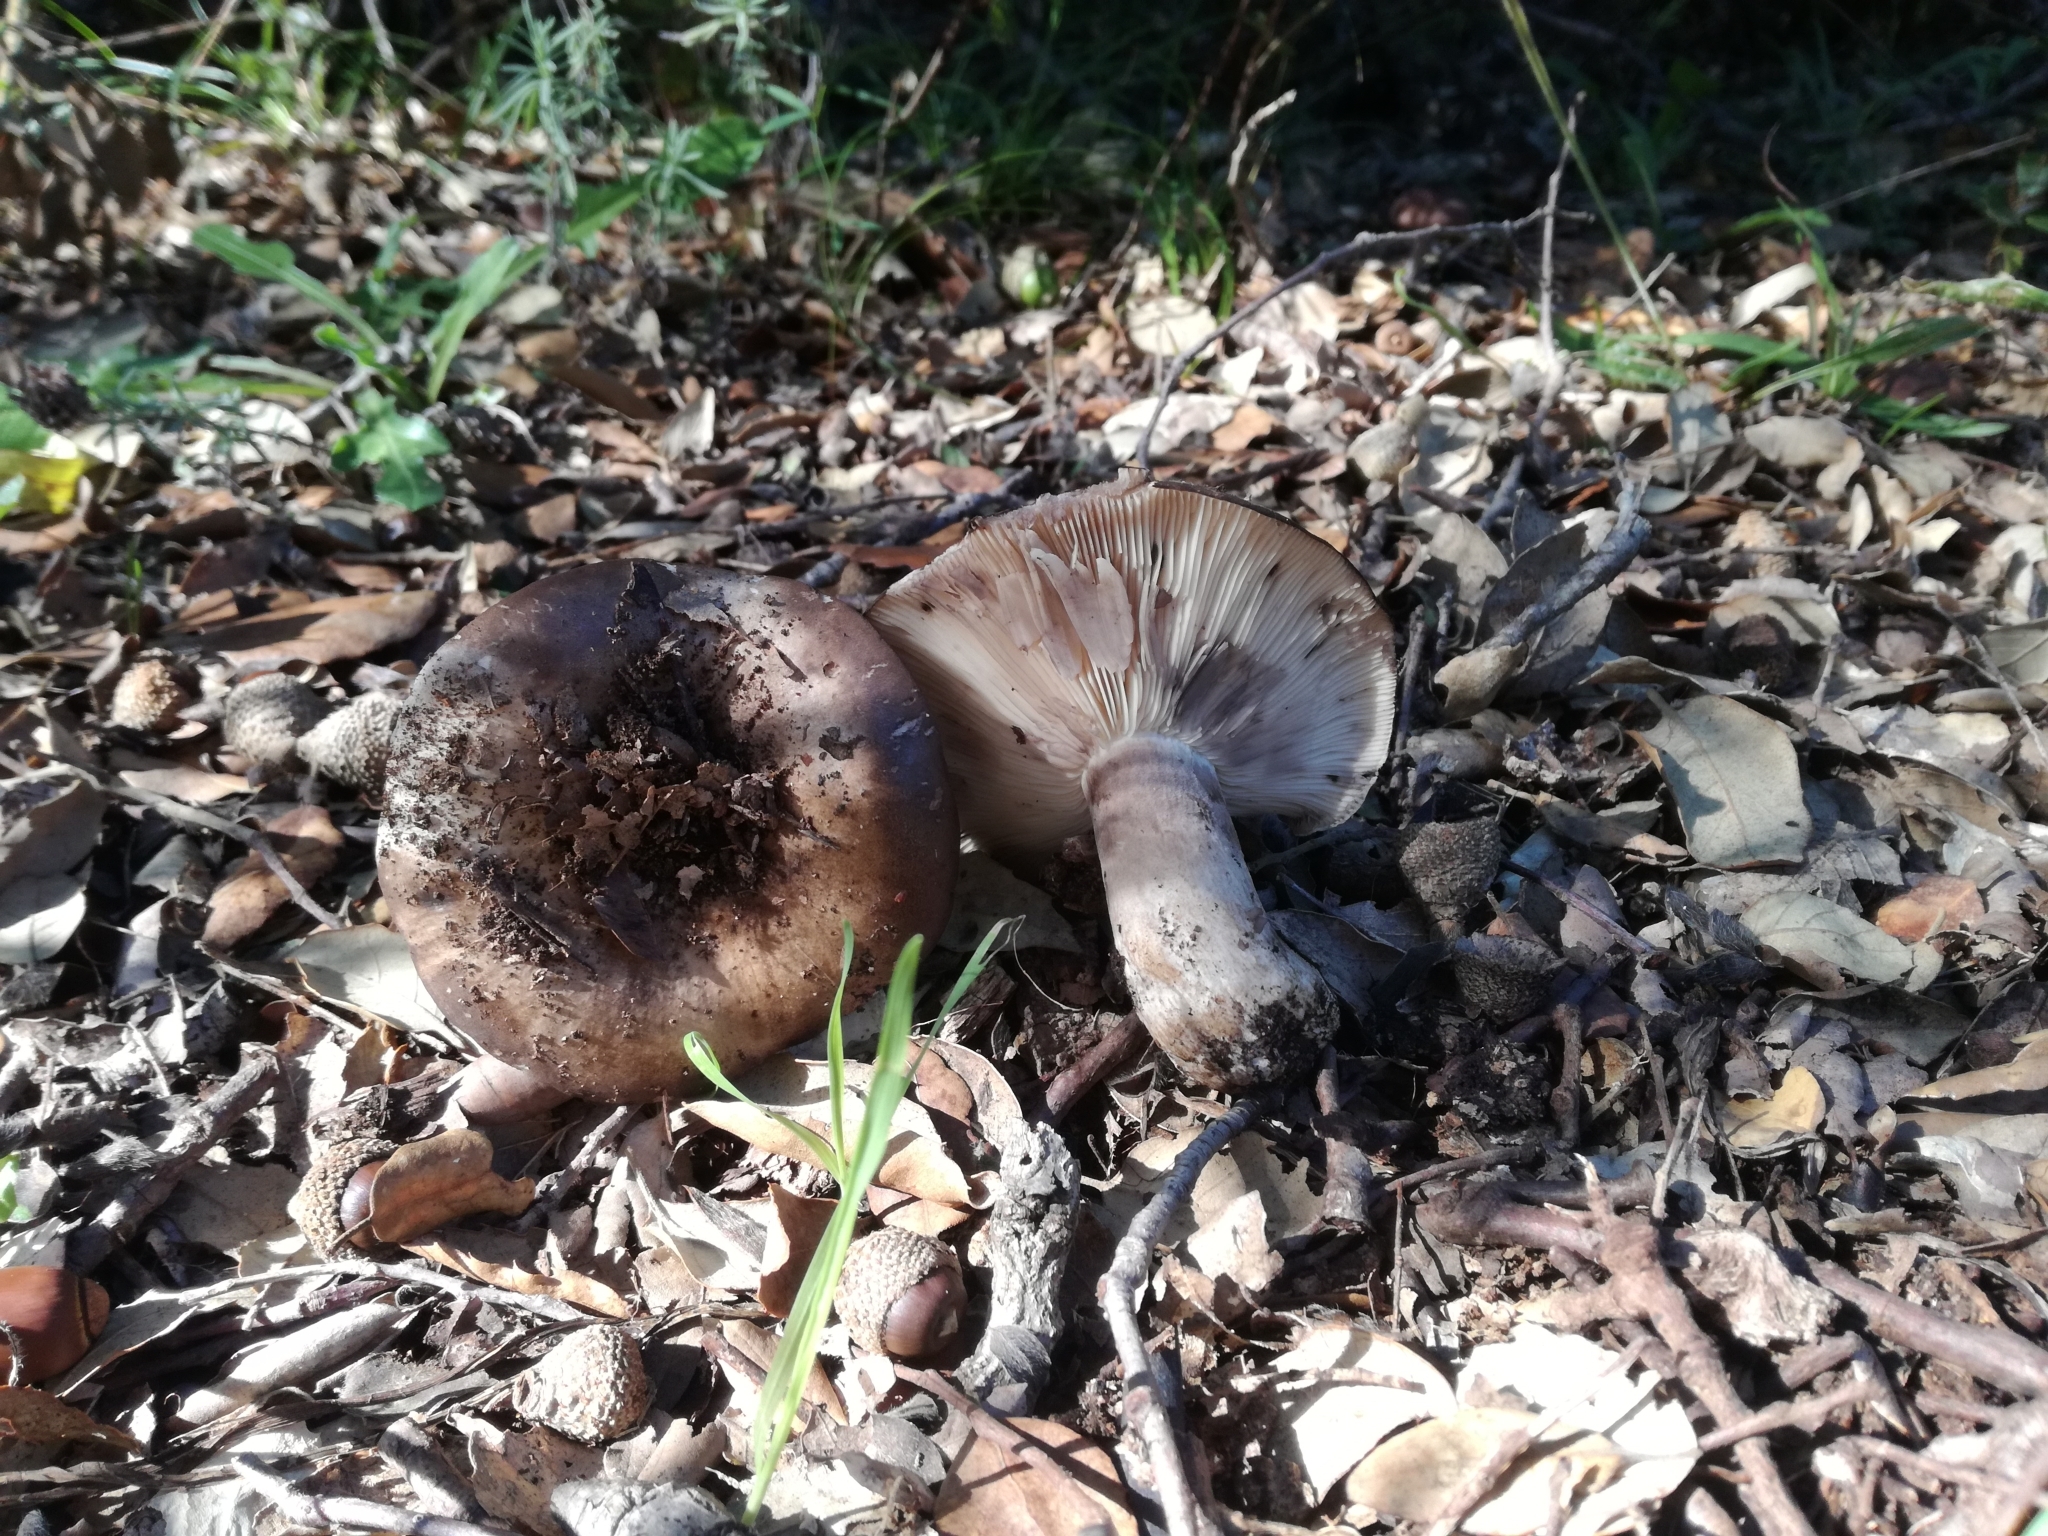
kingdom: Fungi
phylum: Basidiomycota
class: Agaricomycetes
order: Russulales
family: Russulaceae
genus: Russula
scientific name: Russula atramentosa
